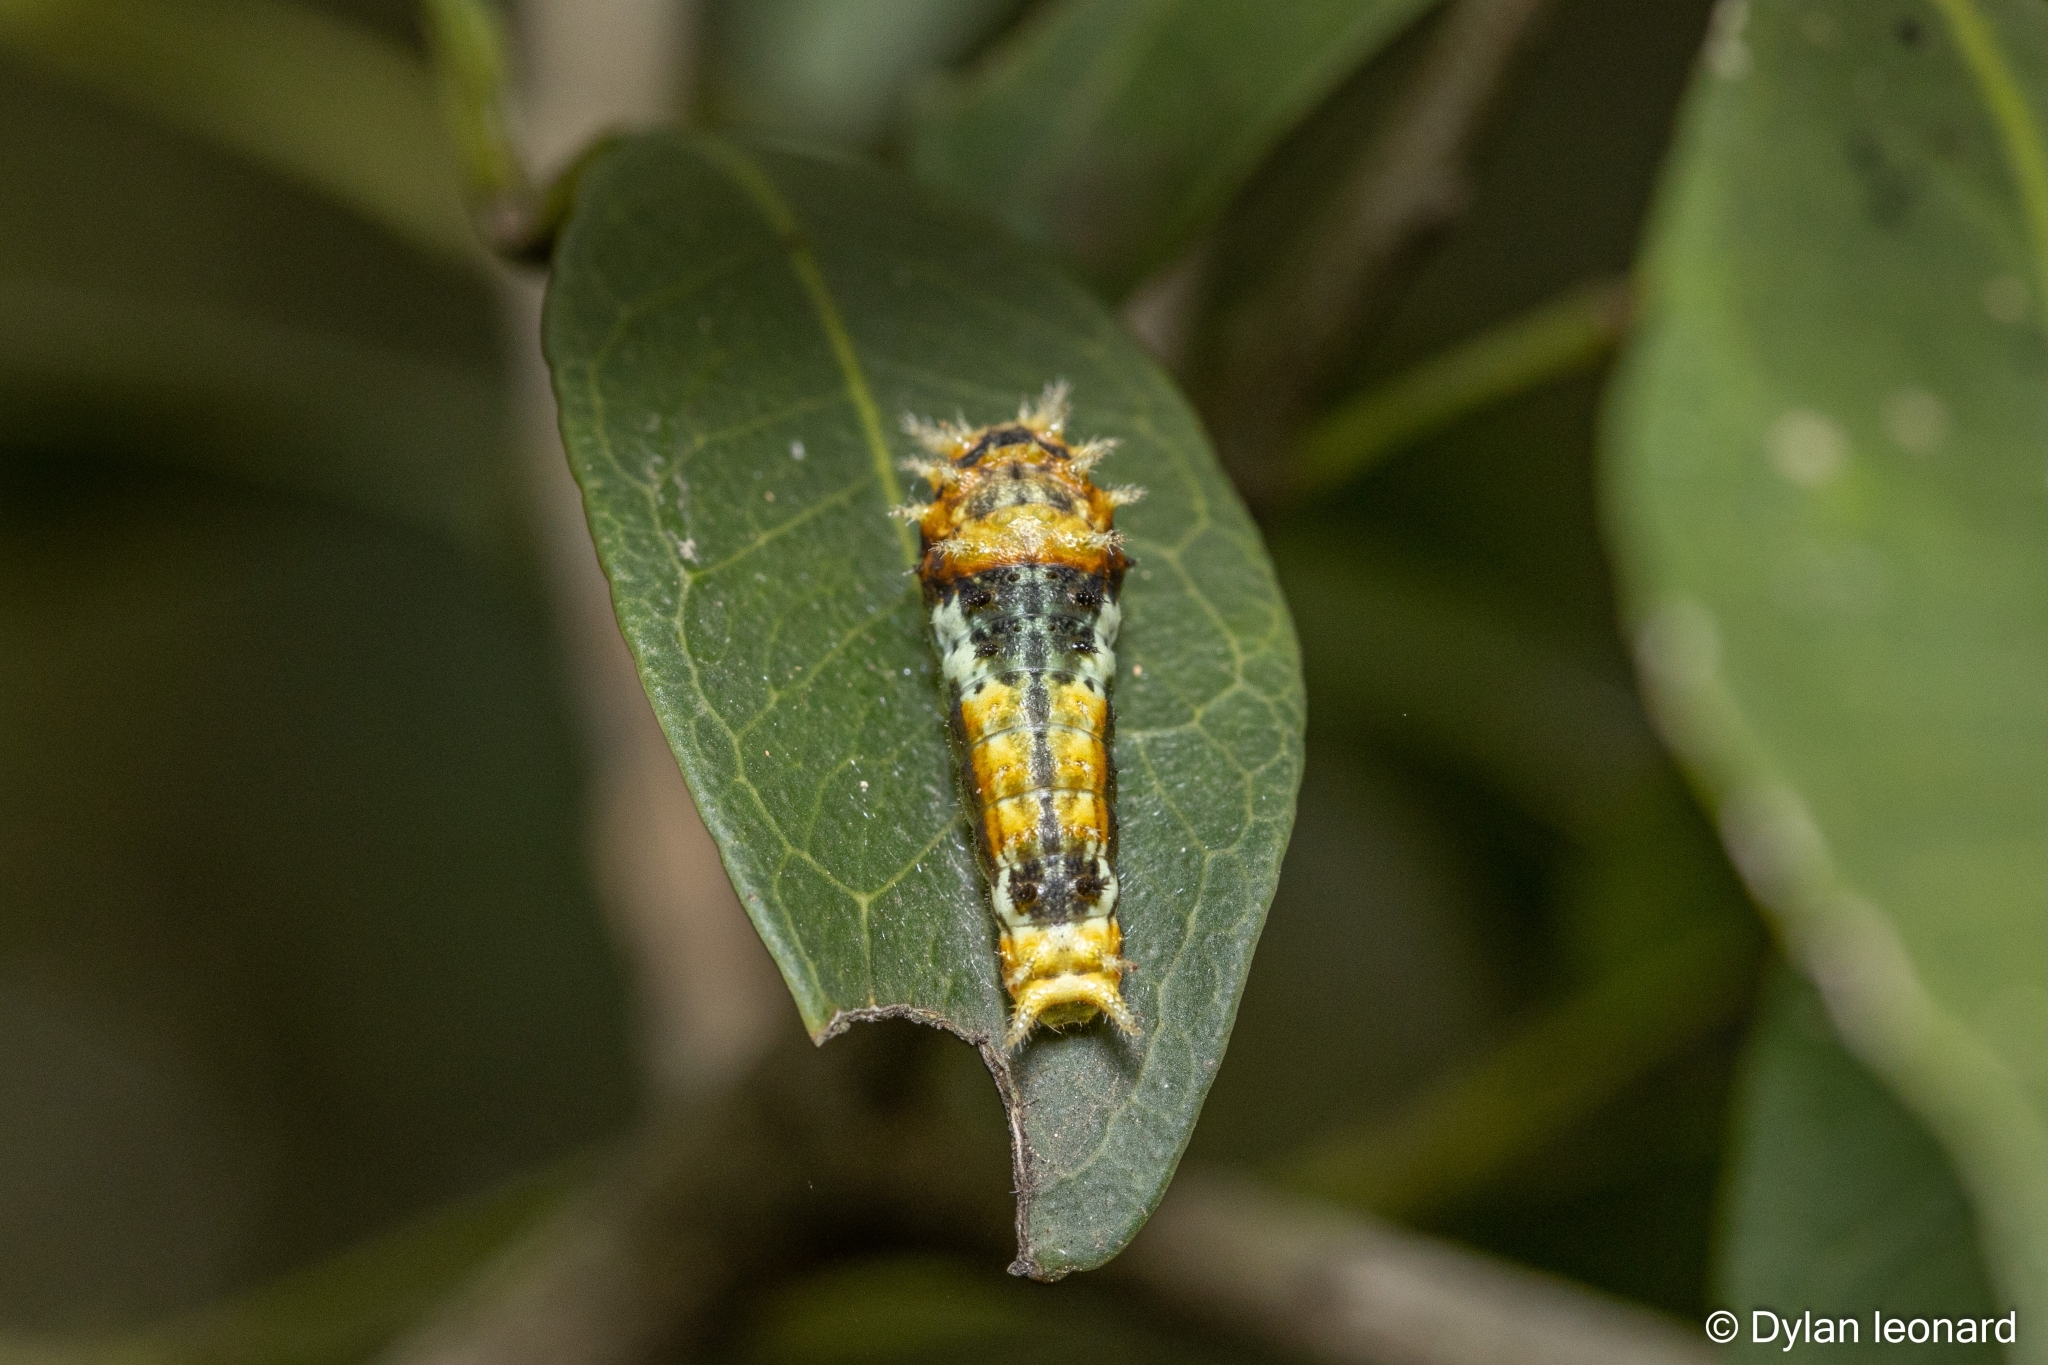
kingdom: Animalia
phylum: Arthropoda
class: Insecta
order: Lepidoptera
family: Papilionidae
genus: Papilio
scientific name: Papilio nireus
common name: Greenbanded swallowtail
